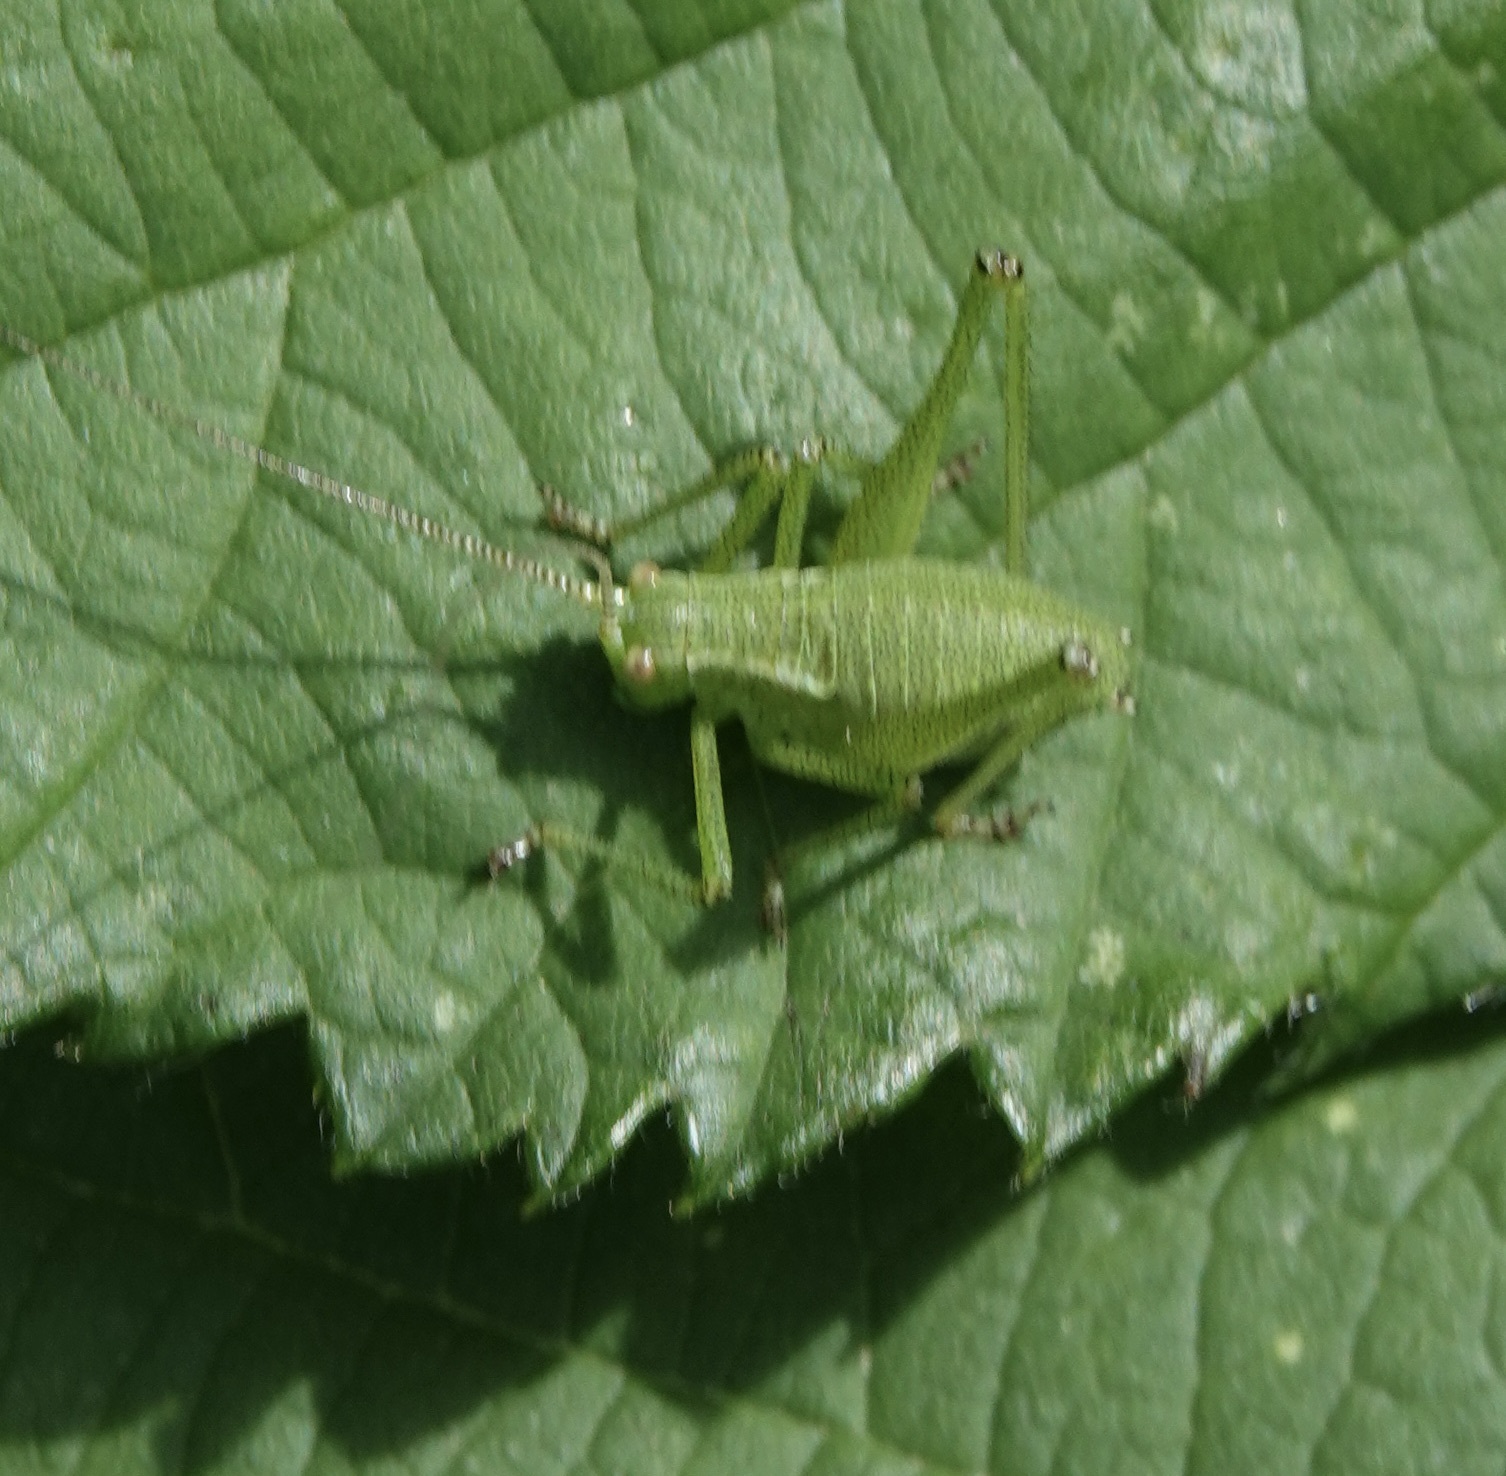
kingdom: Animalia
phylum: Arthropoda
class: Insecta
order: Orthoptera
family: Tettigoniidae
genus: Leptophyes
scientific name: Leptophyes punctatissima
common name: Speckled bush-cricket
